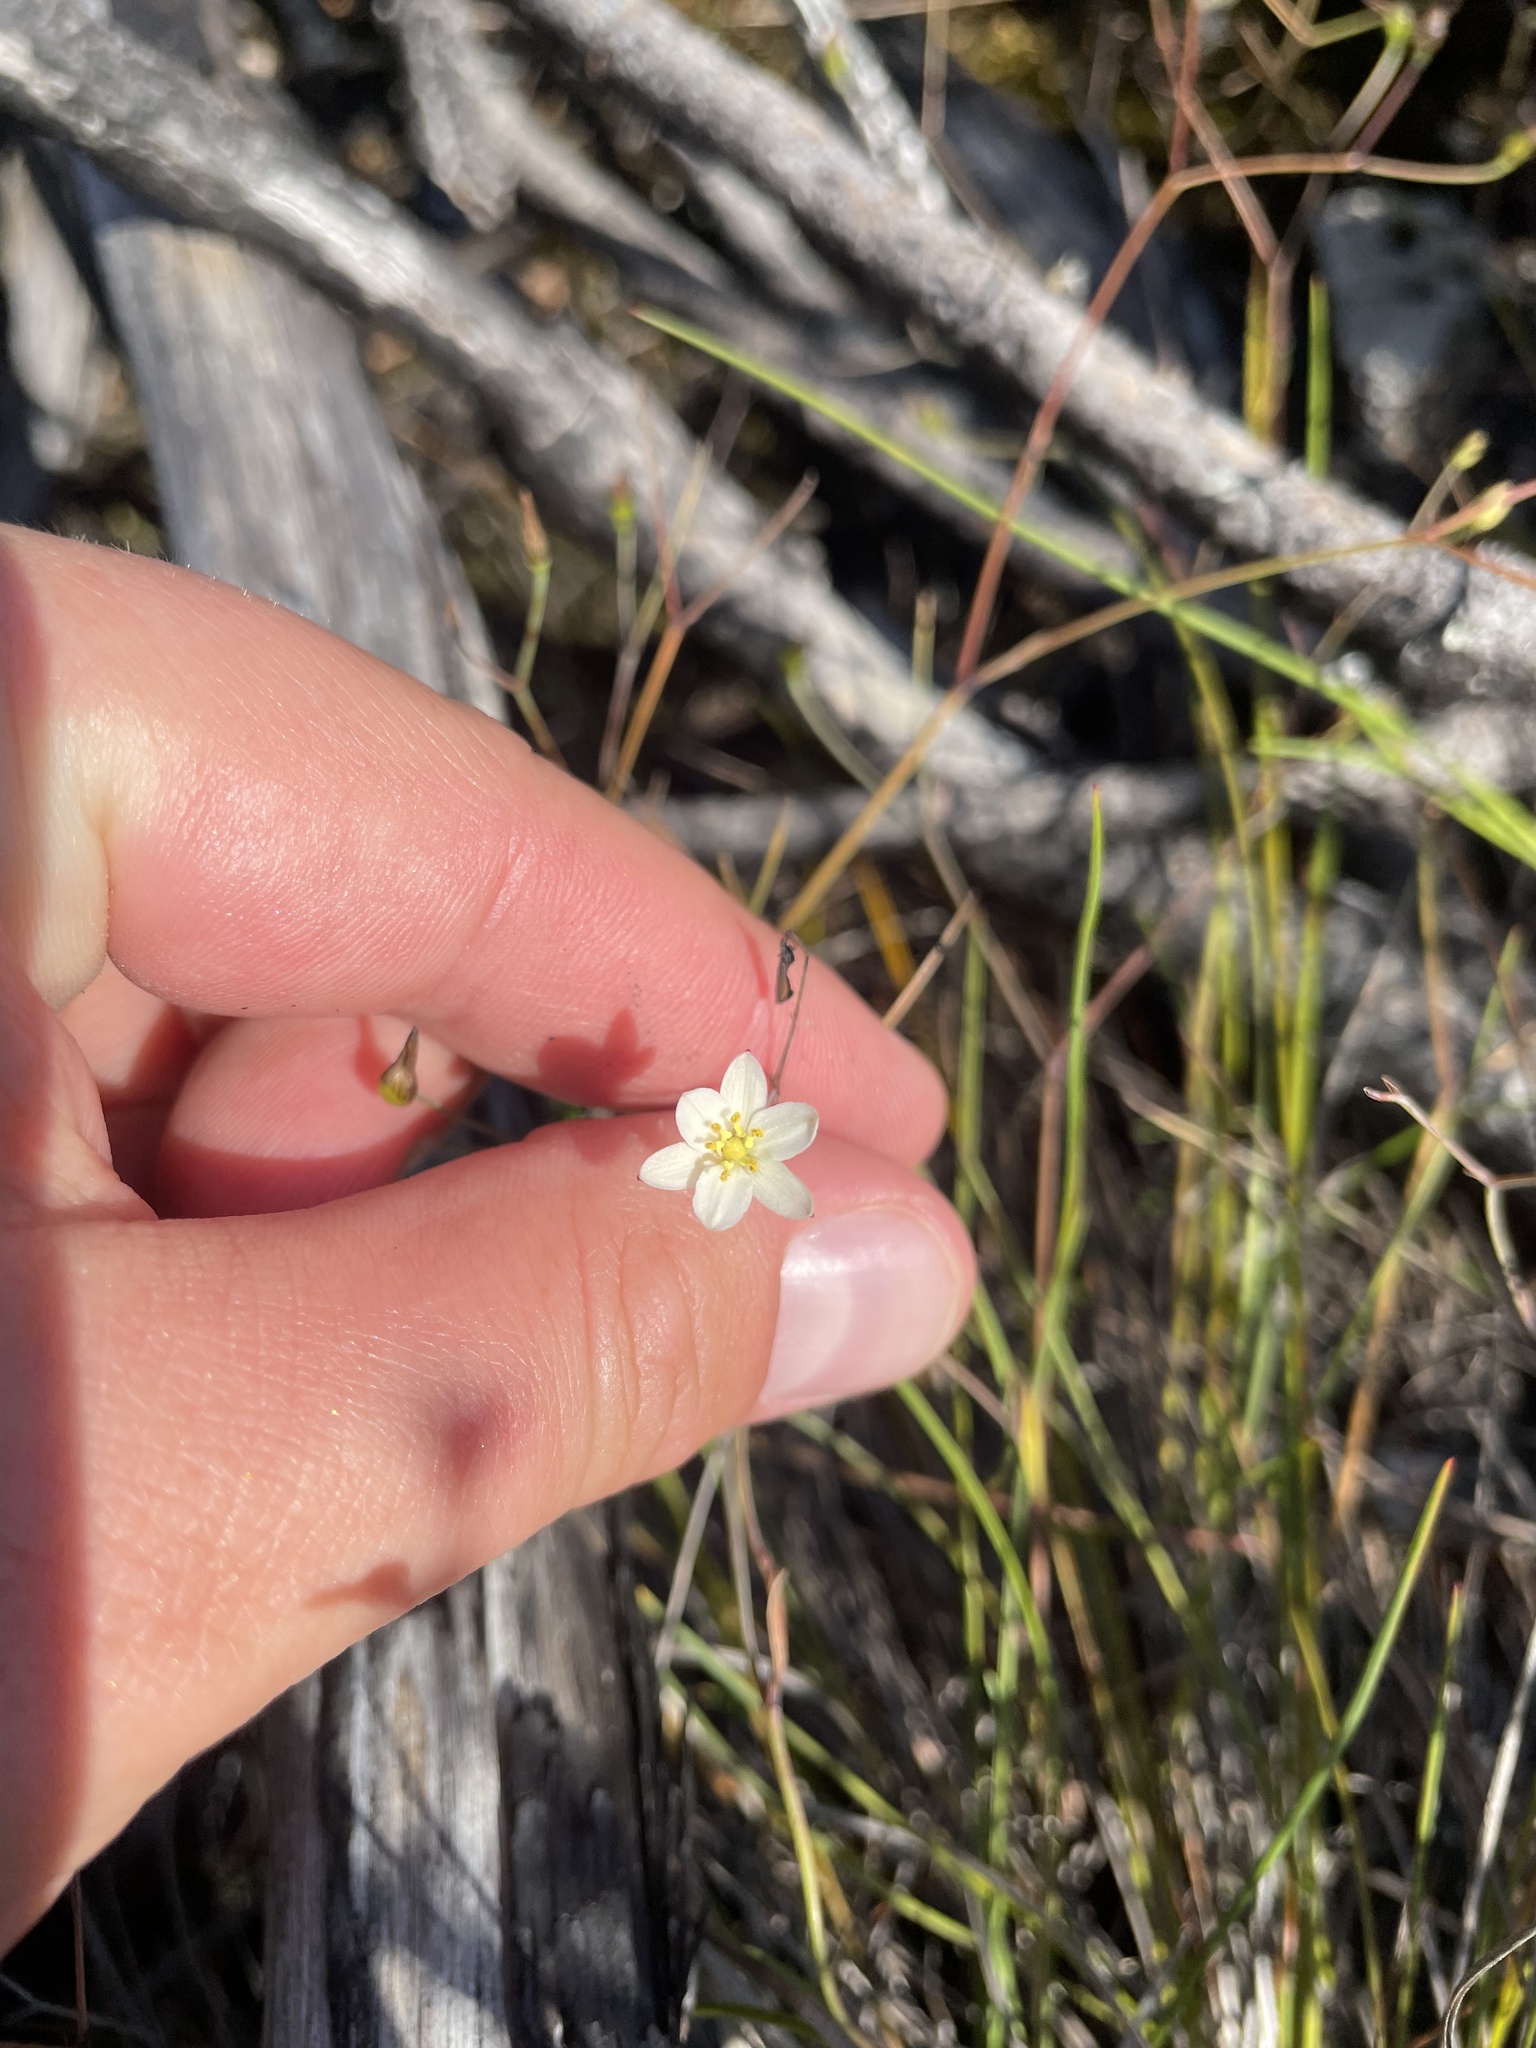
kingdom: Plantae
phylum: Tracheophyta
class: Liliopsida
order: Asparagales
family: Asphodelaceae
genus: Thelionema
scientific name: Thelionema caespitosum
